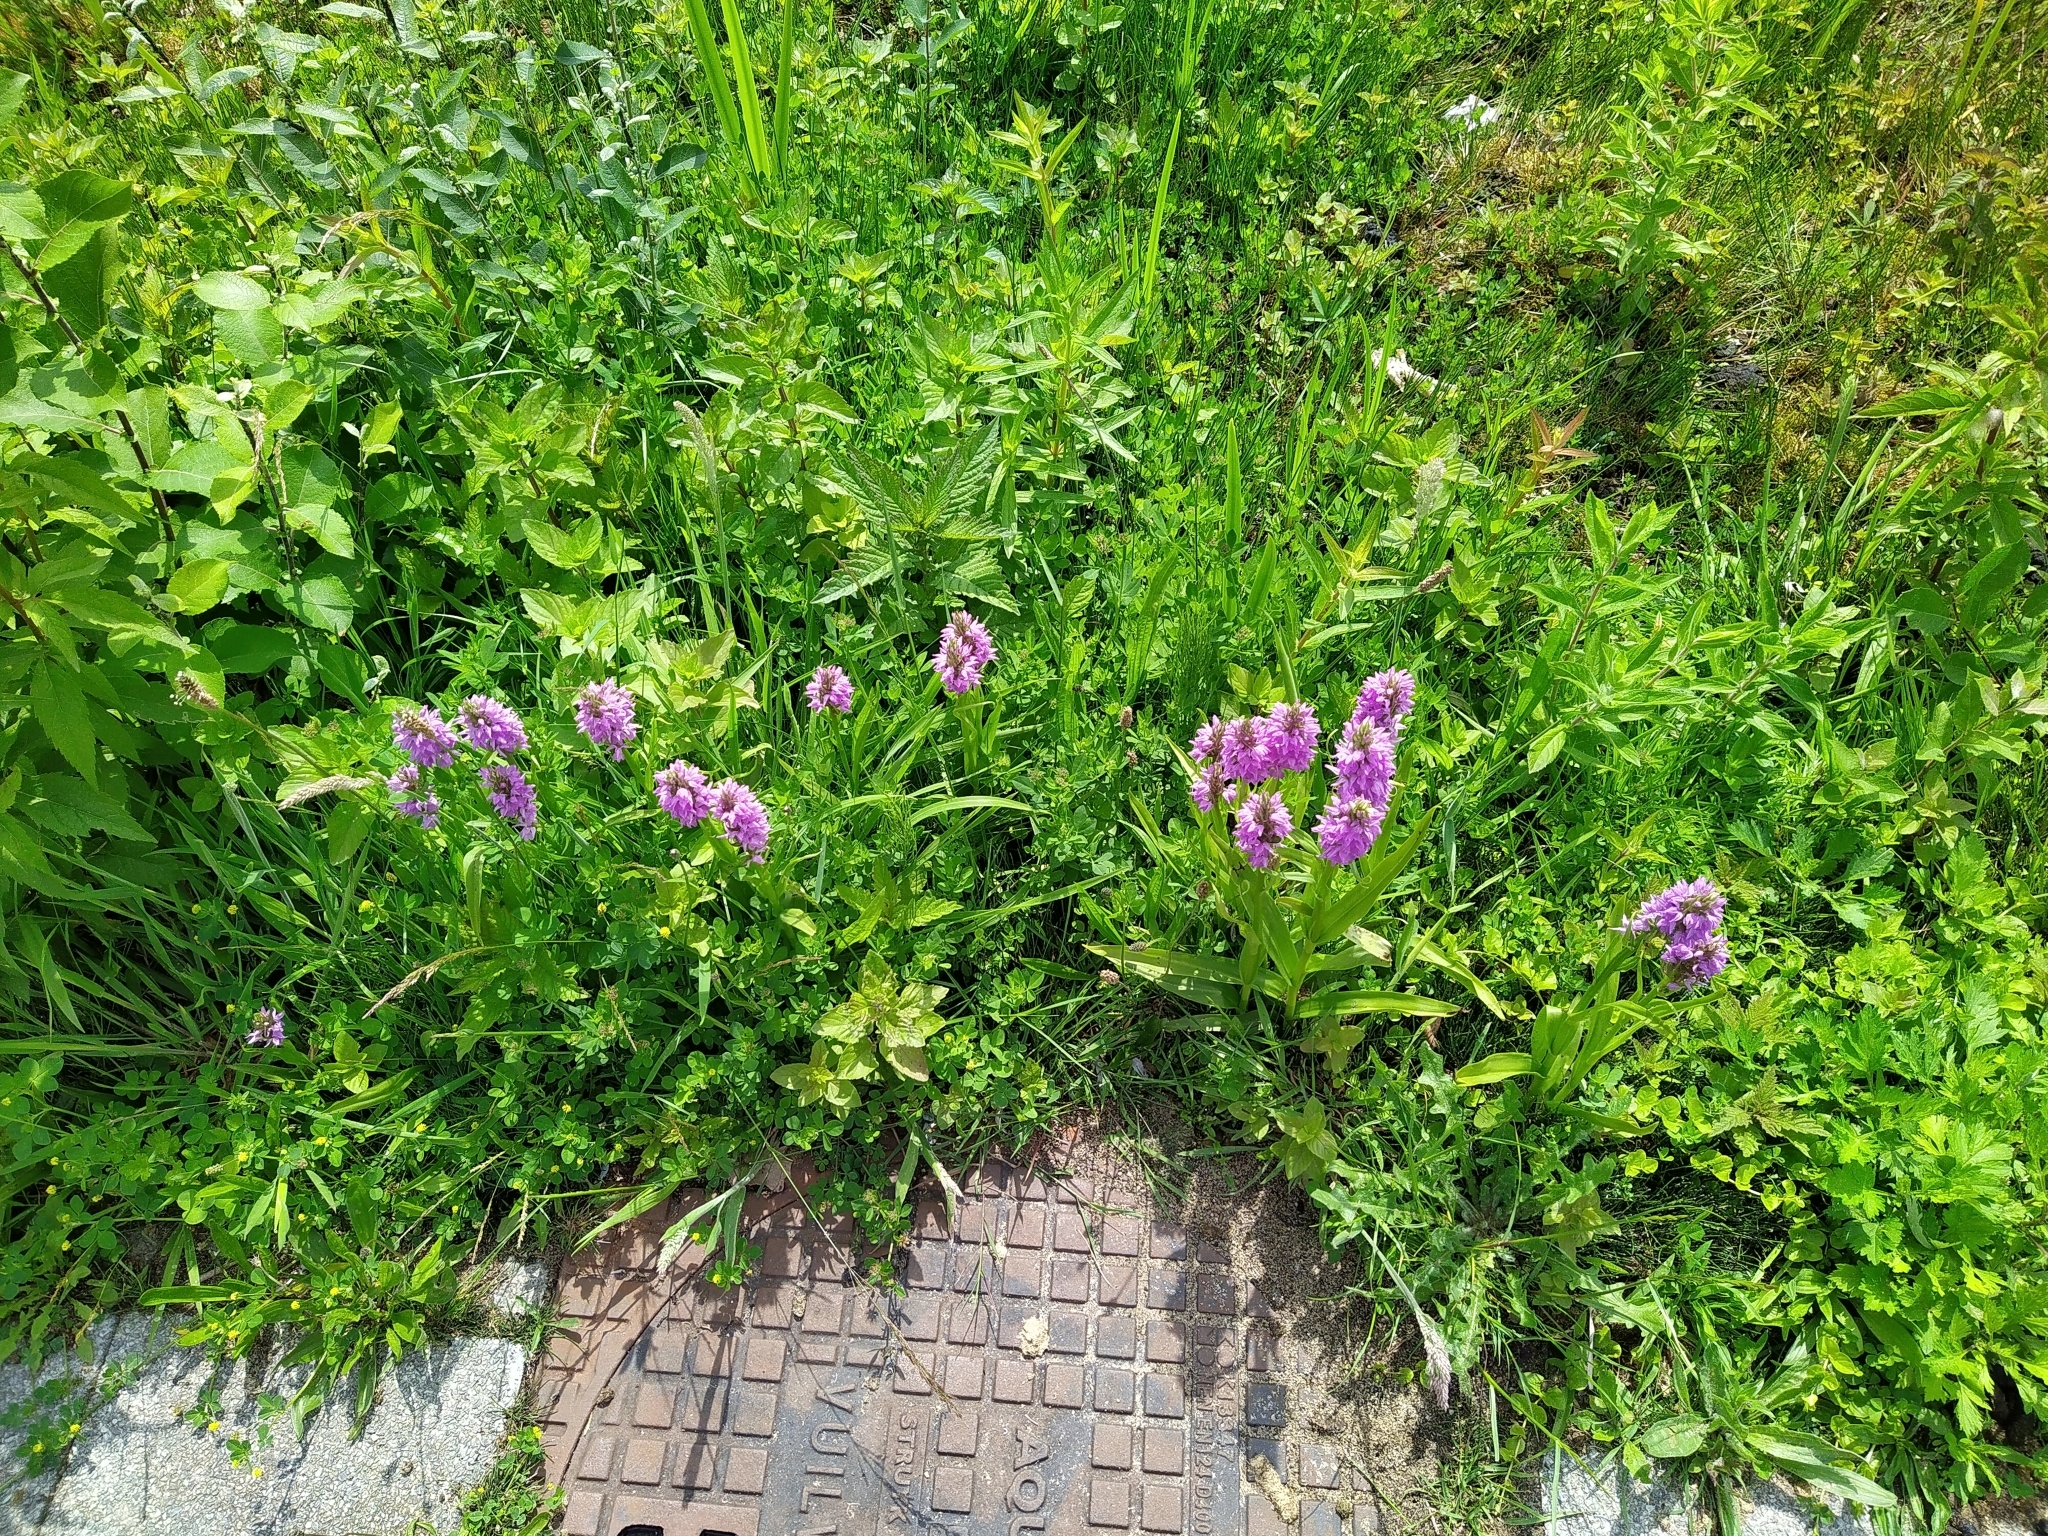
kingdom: Plantae
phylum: Tracheophyta
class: Liliopsida
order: Asparagales
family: Orchidaceae
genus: Dactylorhiza
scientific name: Dactylorhiza majalis
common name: Marsh orchid
